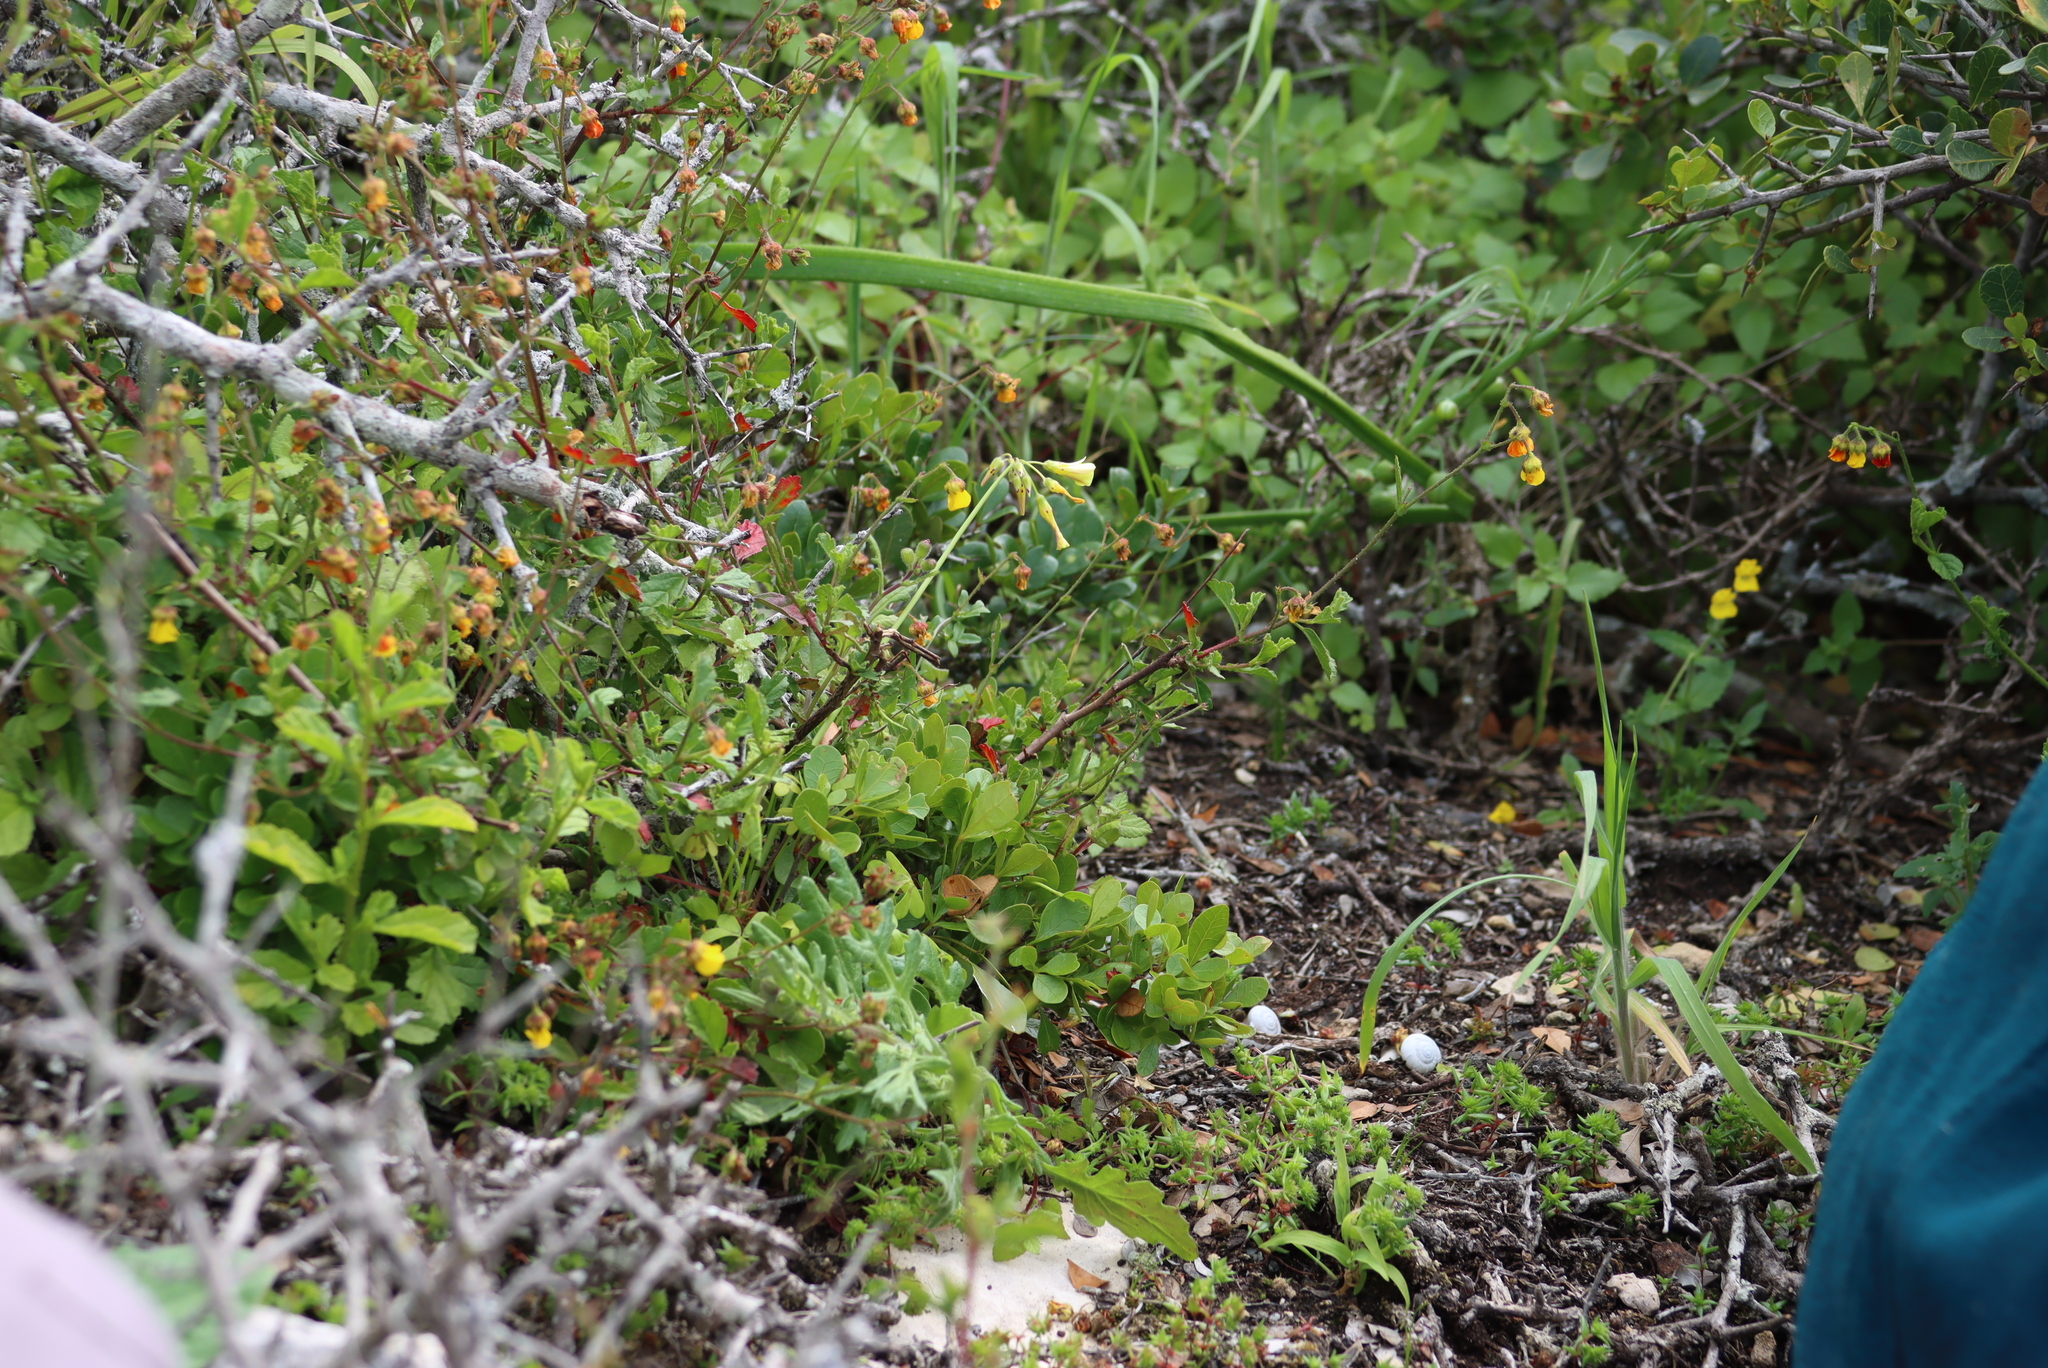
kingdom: Plantae
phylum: Tracheophyta
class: Magnoliopsida
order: Oxalidales
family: Oxalidaceae
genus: Oxalis
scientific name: Oxalis pes-caprae
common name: Bermuda-buttercup
